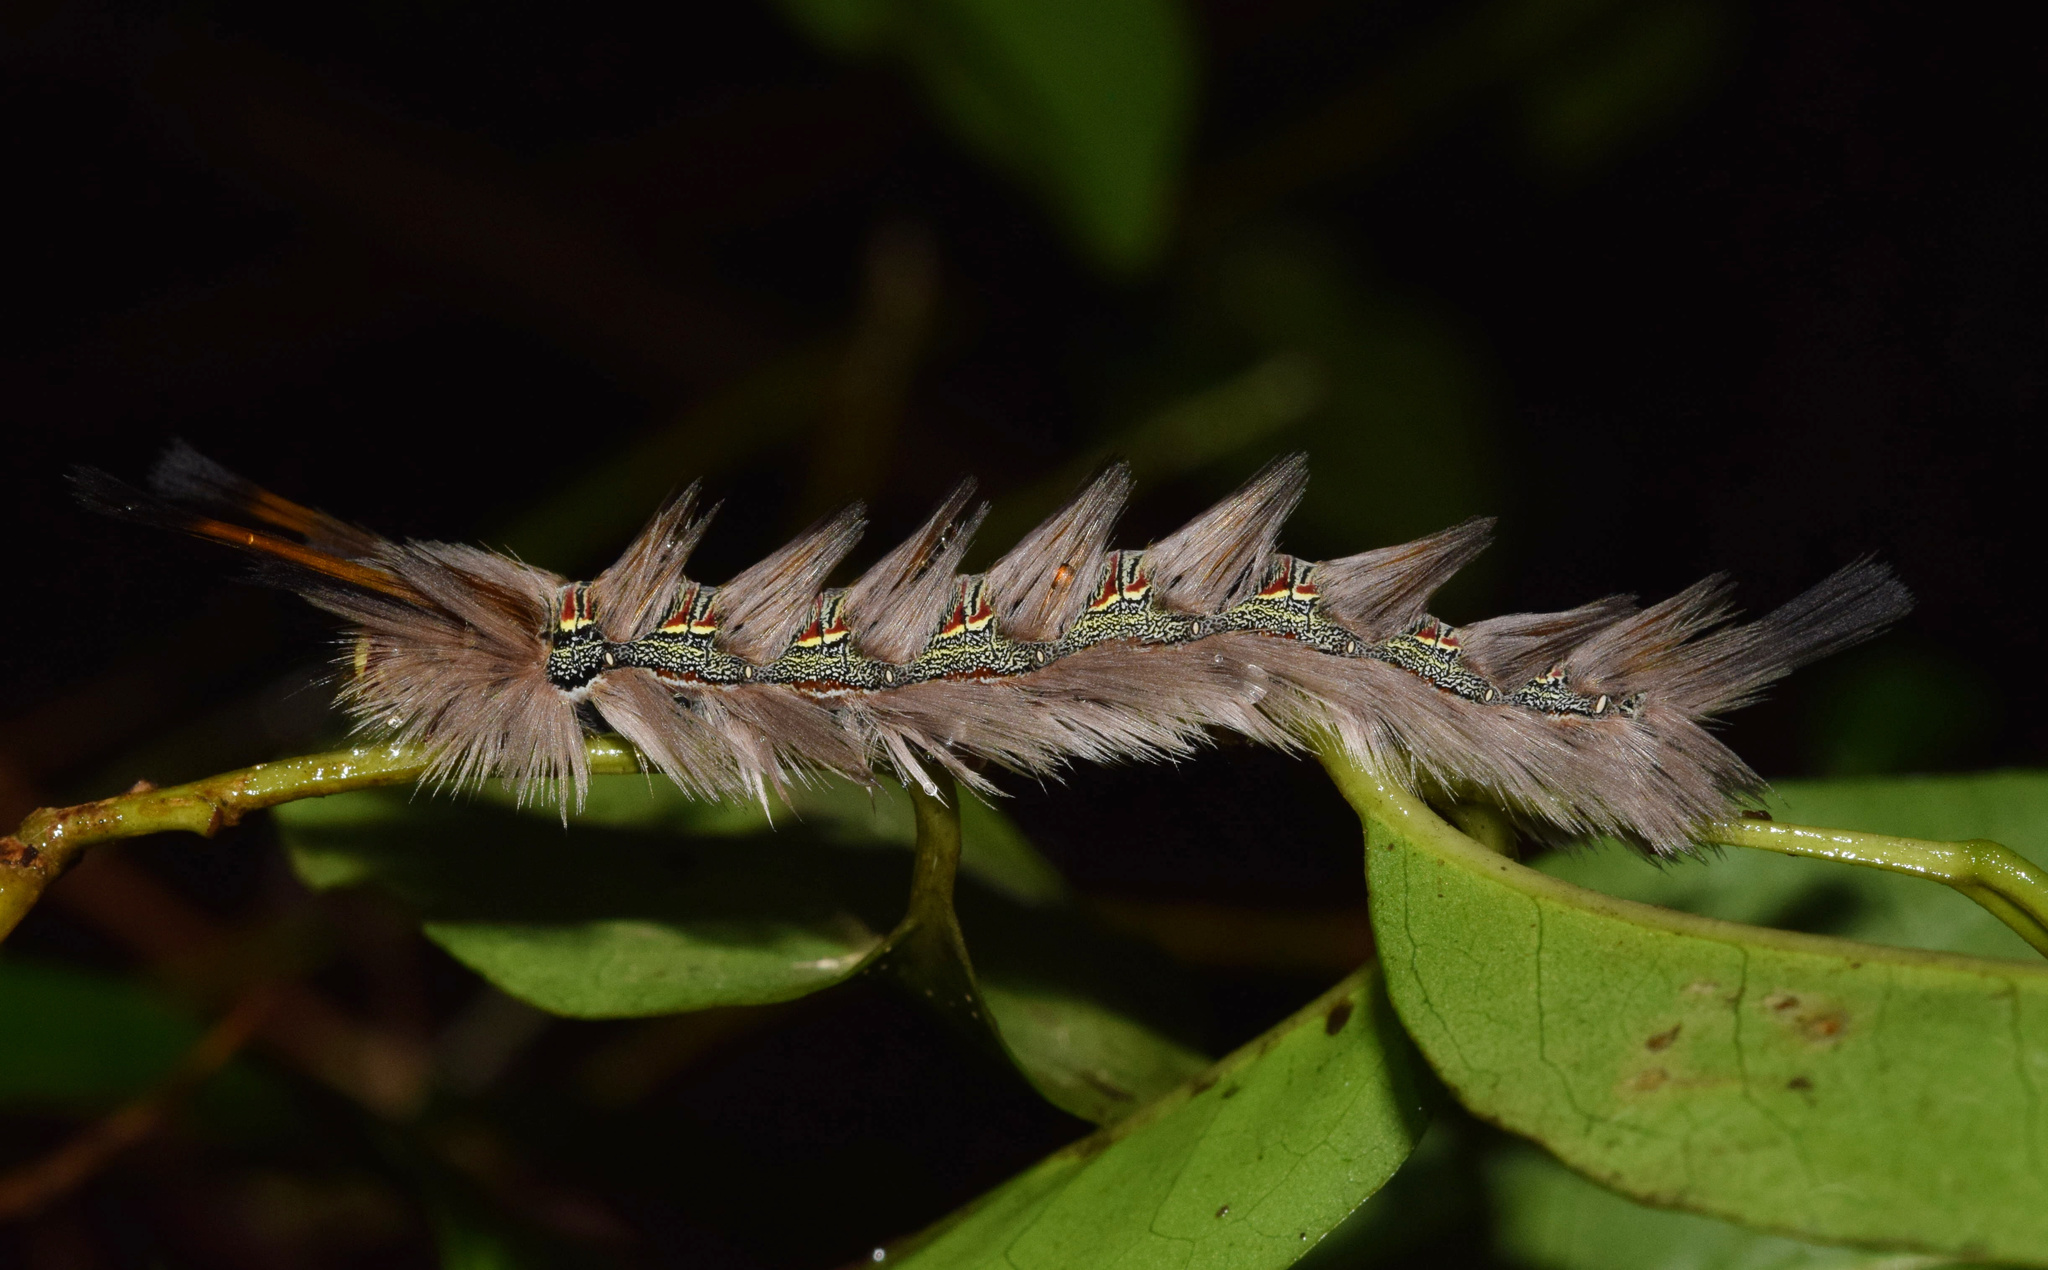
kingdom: Animalia
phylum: Arthropoda
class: Insecta
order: Lepidoptera
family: Eupterotidae
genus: Lichenopteryx
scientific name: Lichenopteryx despecta
